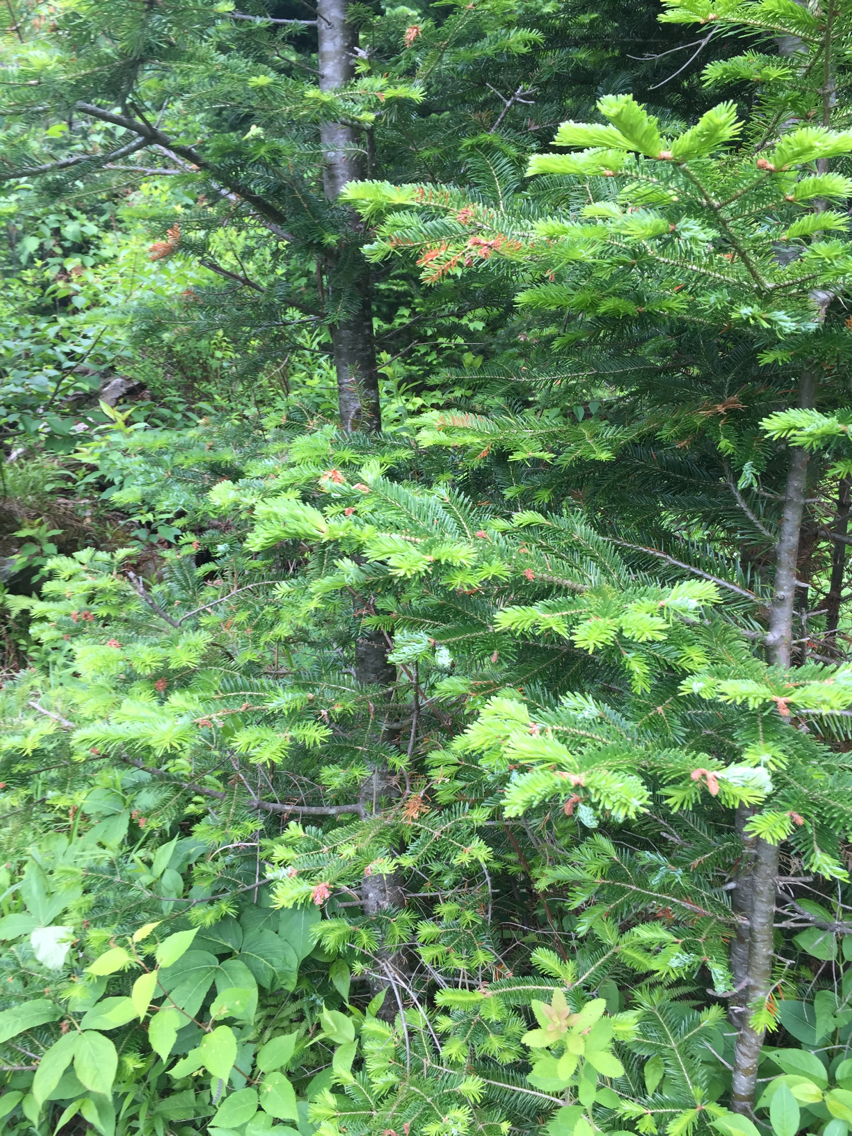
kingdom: Plantae
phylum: Tracheophyta
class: Pinopsida
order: Pinales
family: Pinaceae
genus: Abies
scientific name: Abies balsamea
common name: Balsam fir
